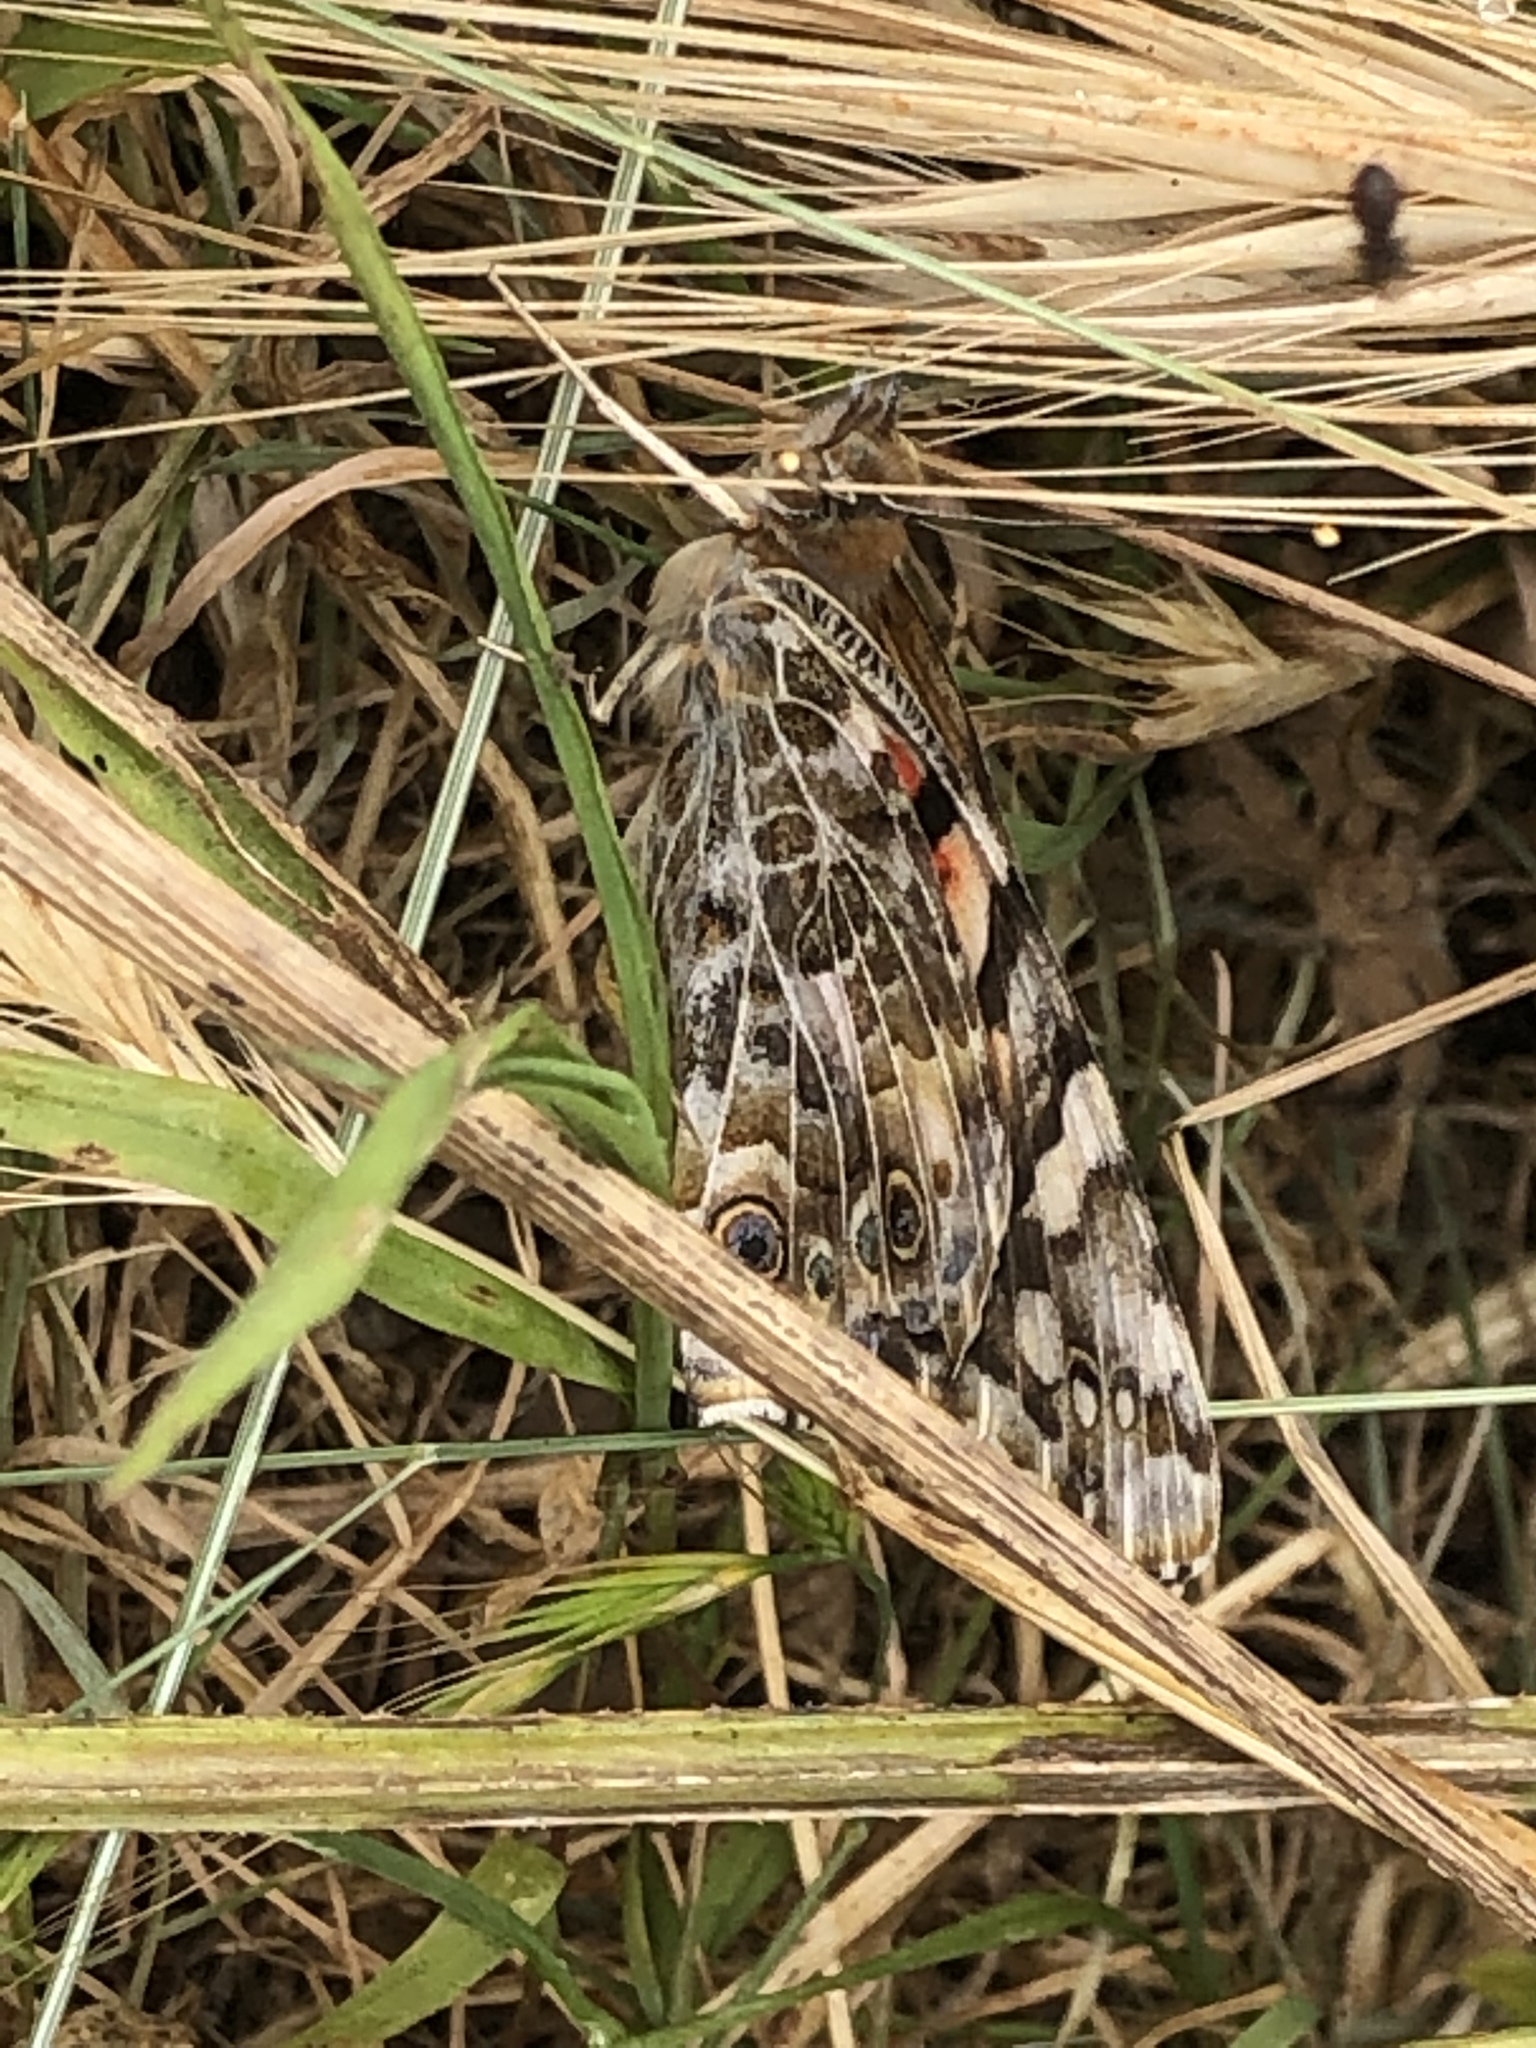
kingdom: Animalia
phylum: Arthropoda
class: Insecta
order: Lepidoptera
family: Nymphalidae
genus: Vanessa
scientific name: Vanessa cardui
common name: Painted lady
